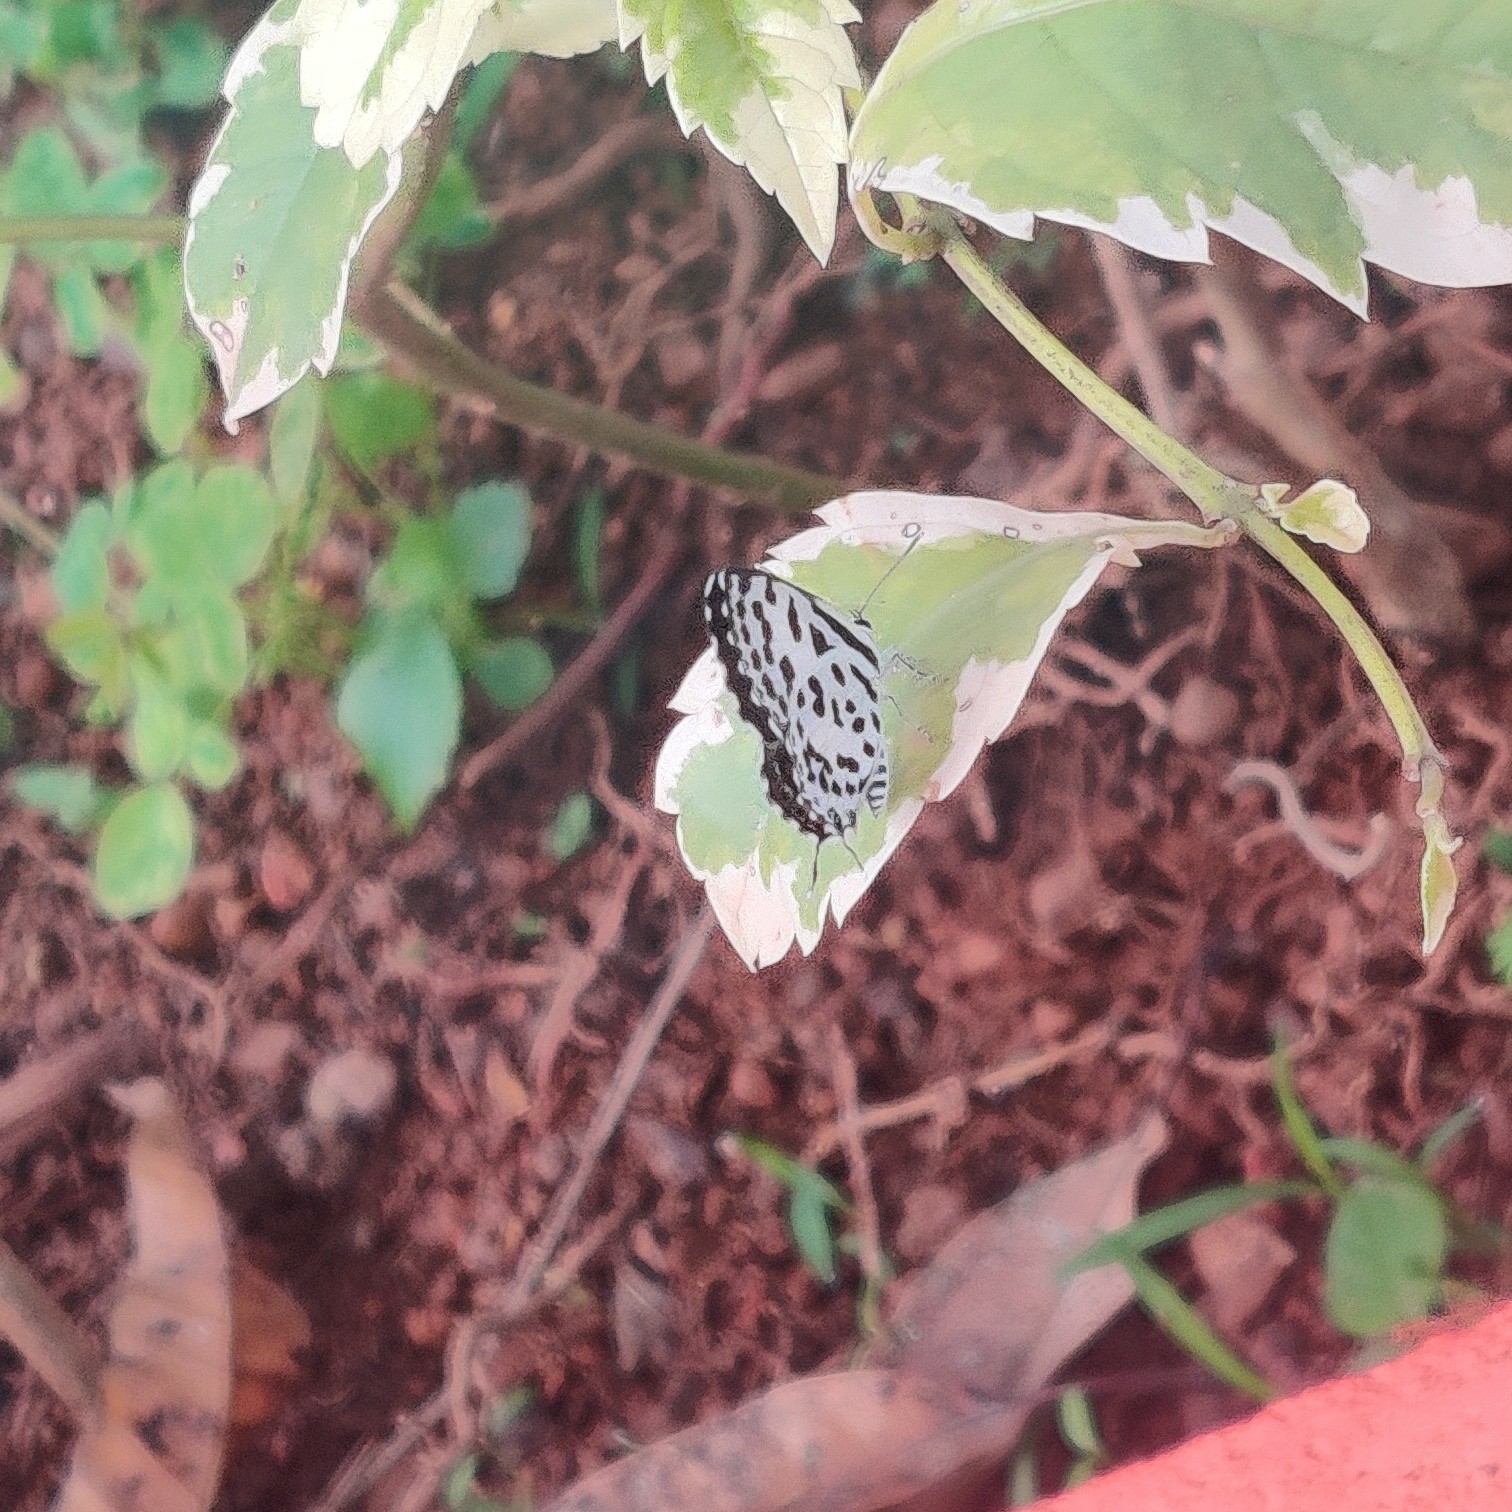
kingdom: Animalia
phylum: Arthropoda
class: Insecta
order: Lepidoptera
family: Lycaenidae
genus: Castalius
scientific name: Castalius rosimon
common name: Common pierrot
